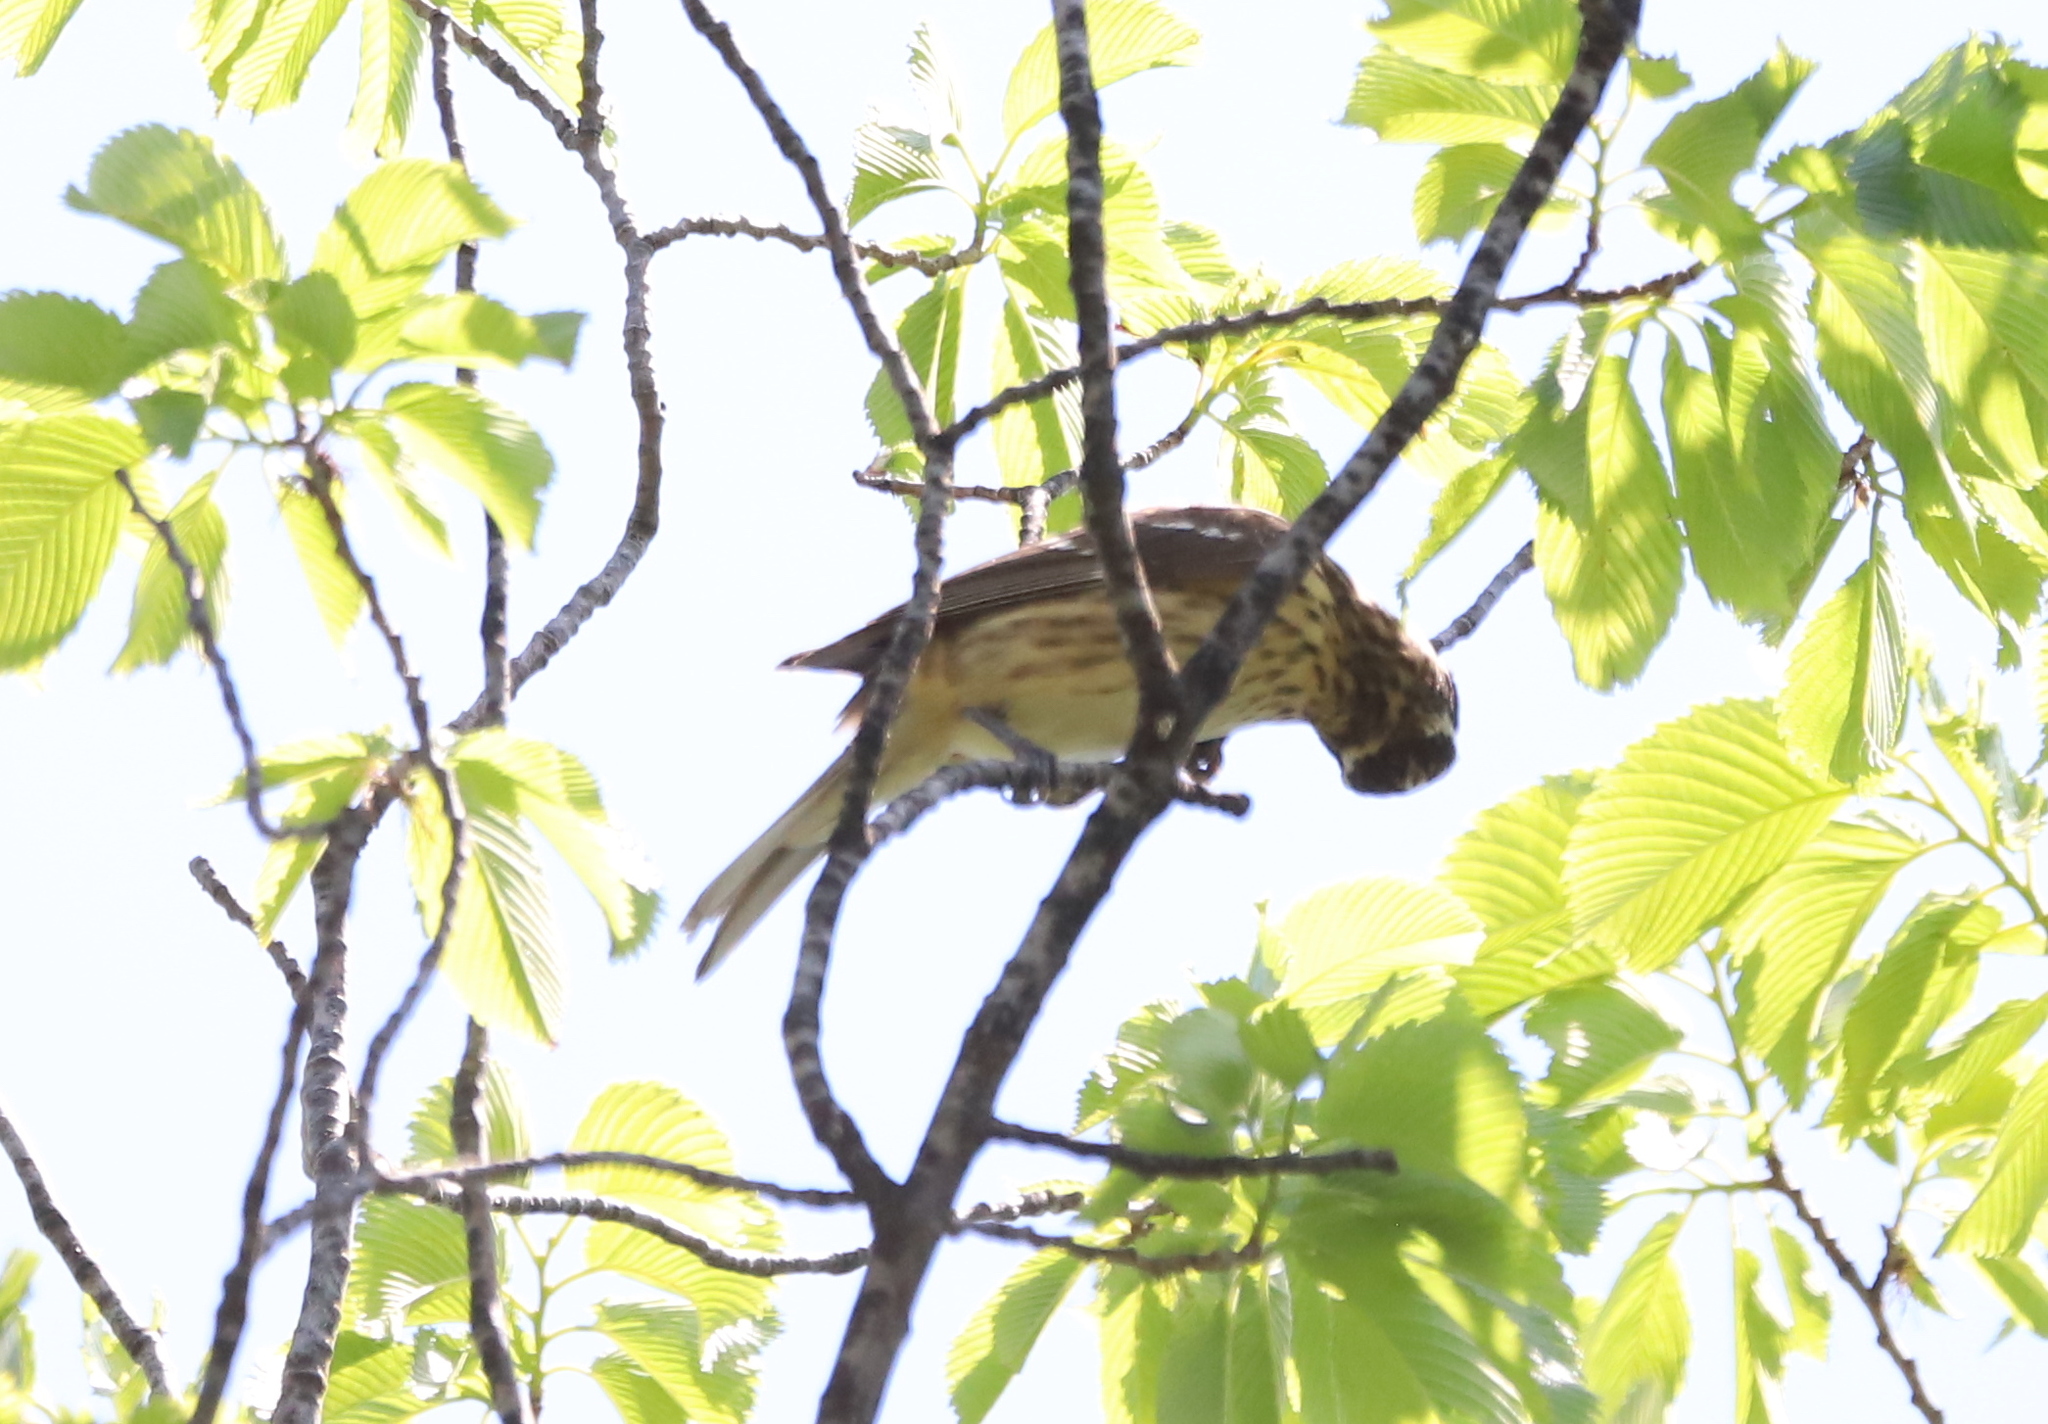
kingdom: Animalia
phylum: Chordata
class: Aves
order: Passeriformes
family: Cardinalidae
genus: Pheucticus
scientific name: Pheucticus ludovicianus
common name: Rose-breasted grosbeak
